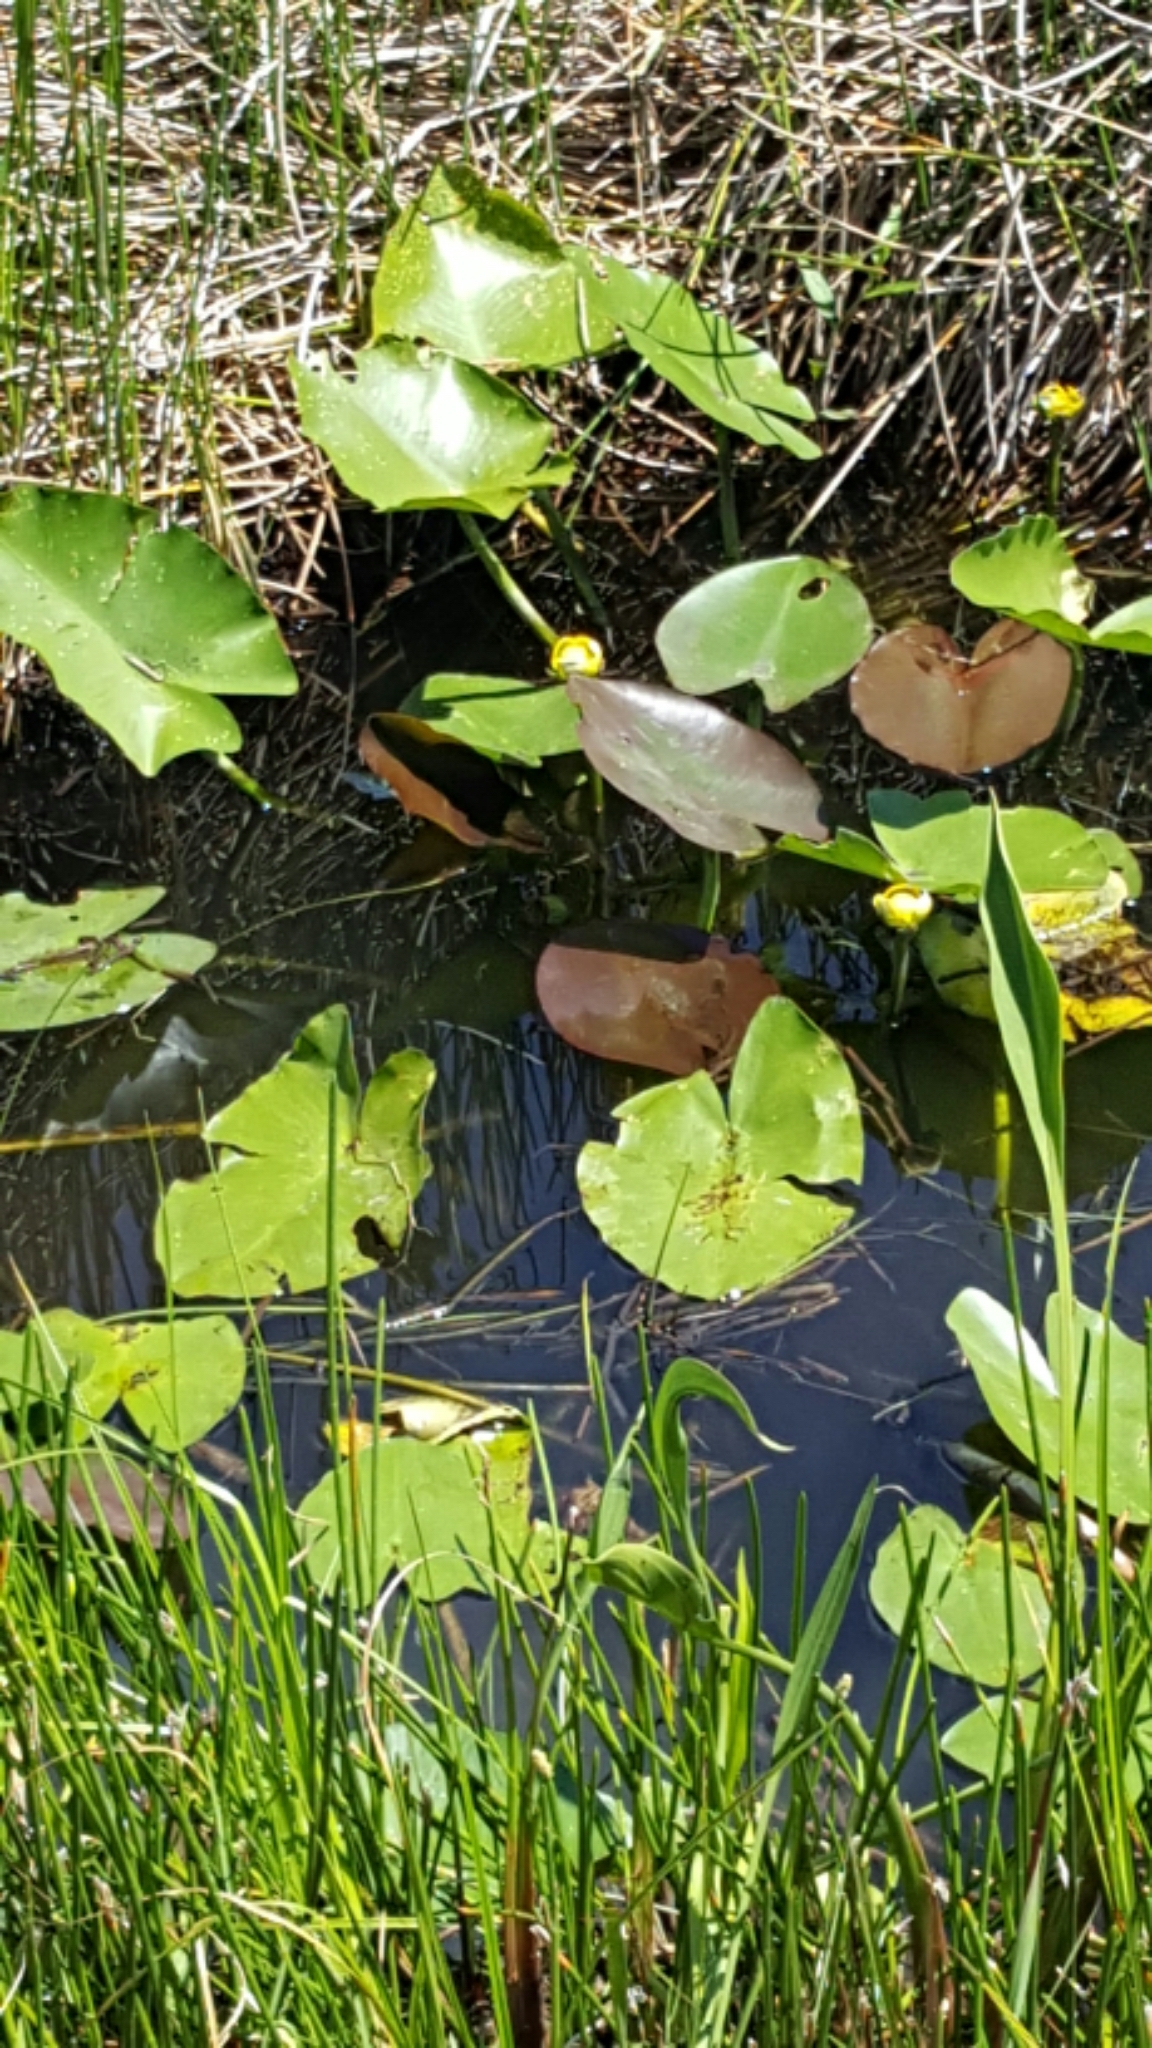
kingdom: Plantae
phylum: Tracheophyta
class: Magnoliopsida
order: Nymphaeales
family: Nymphaeaceae
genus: Nuphar
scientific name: Nuphar advena
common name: Spatter-dock
